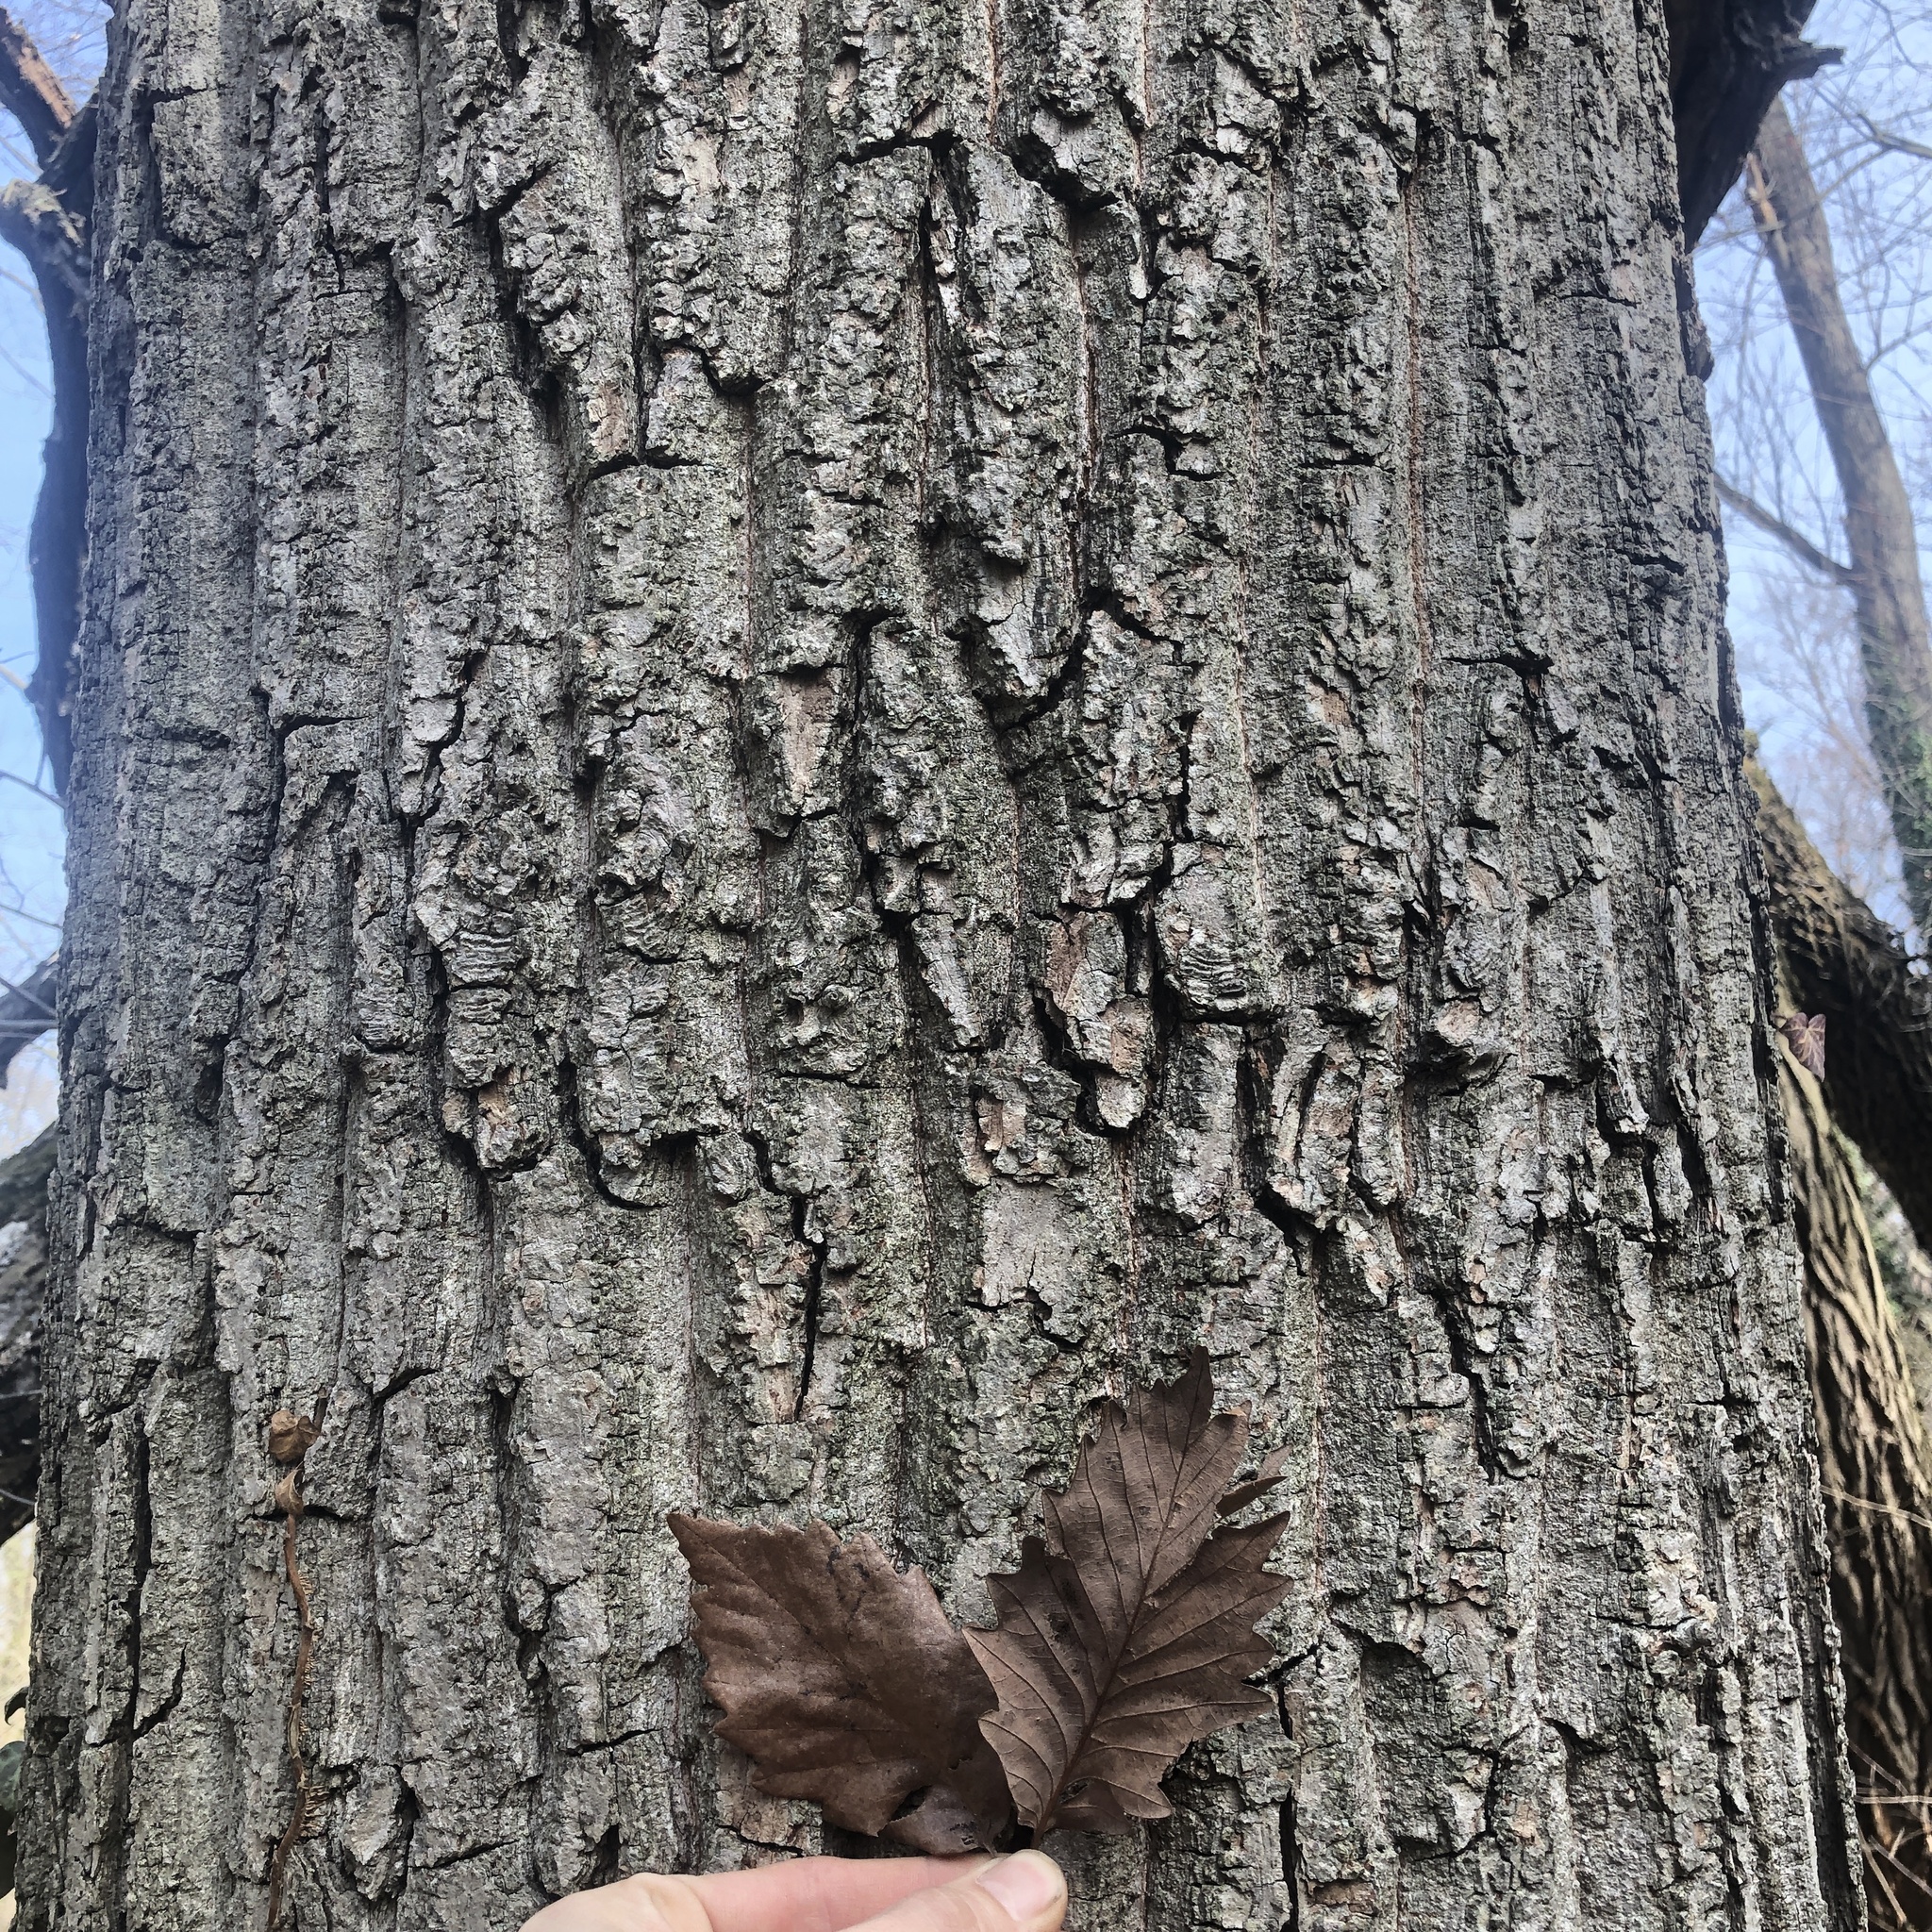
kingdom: Plantae
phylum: Tracheophyta
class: Magnoliopsida
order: Fagales
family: Fagaceae
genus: Quercus
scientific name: Quercus montana
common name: Chestnut oak
